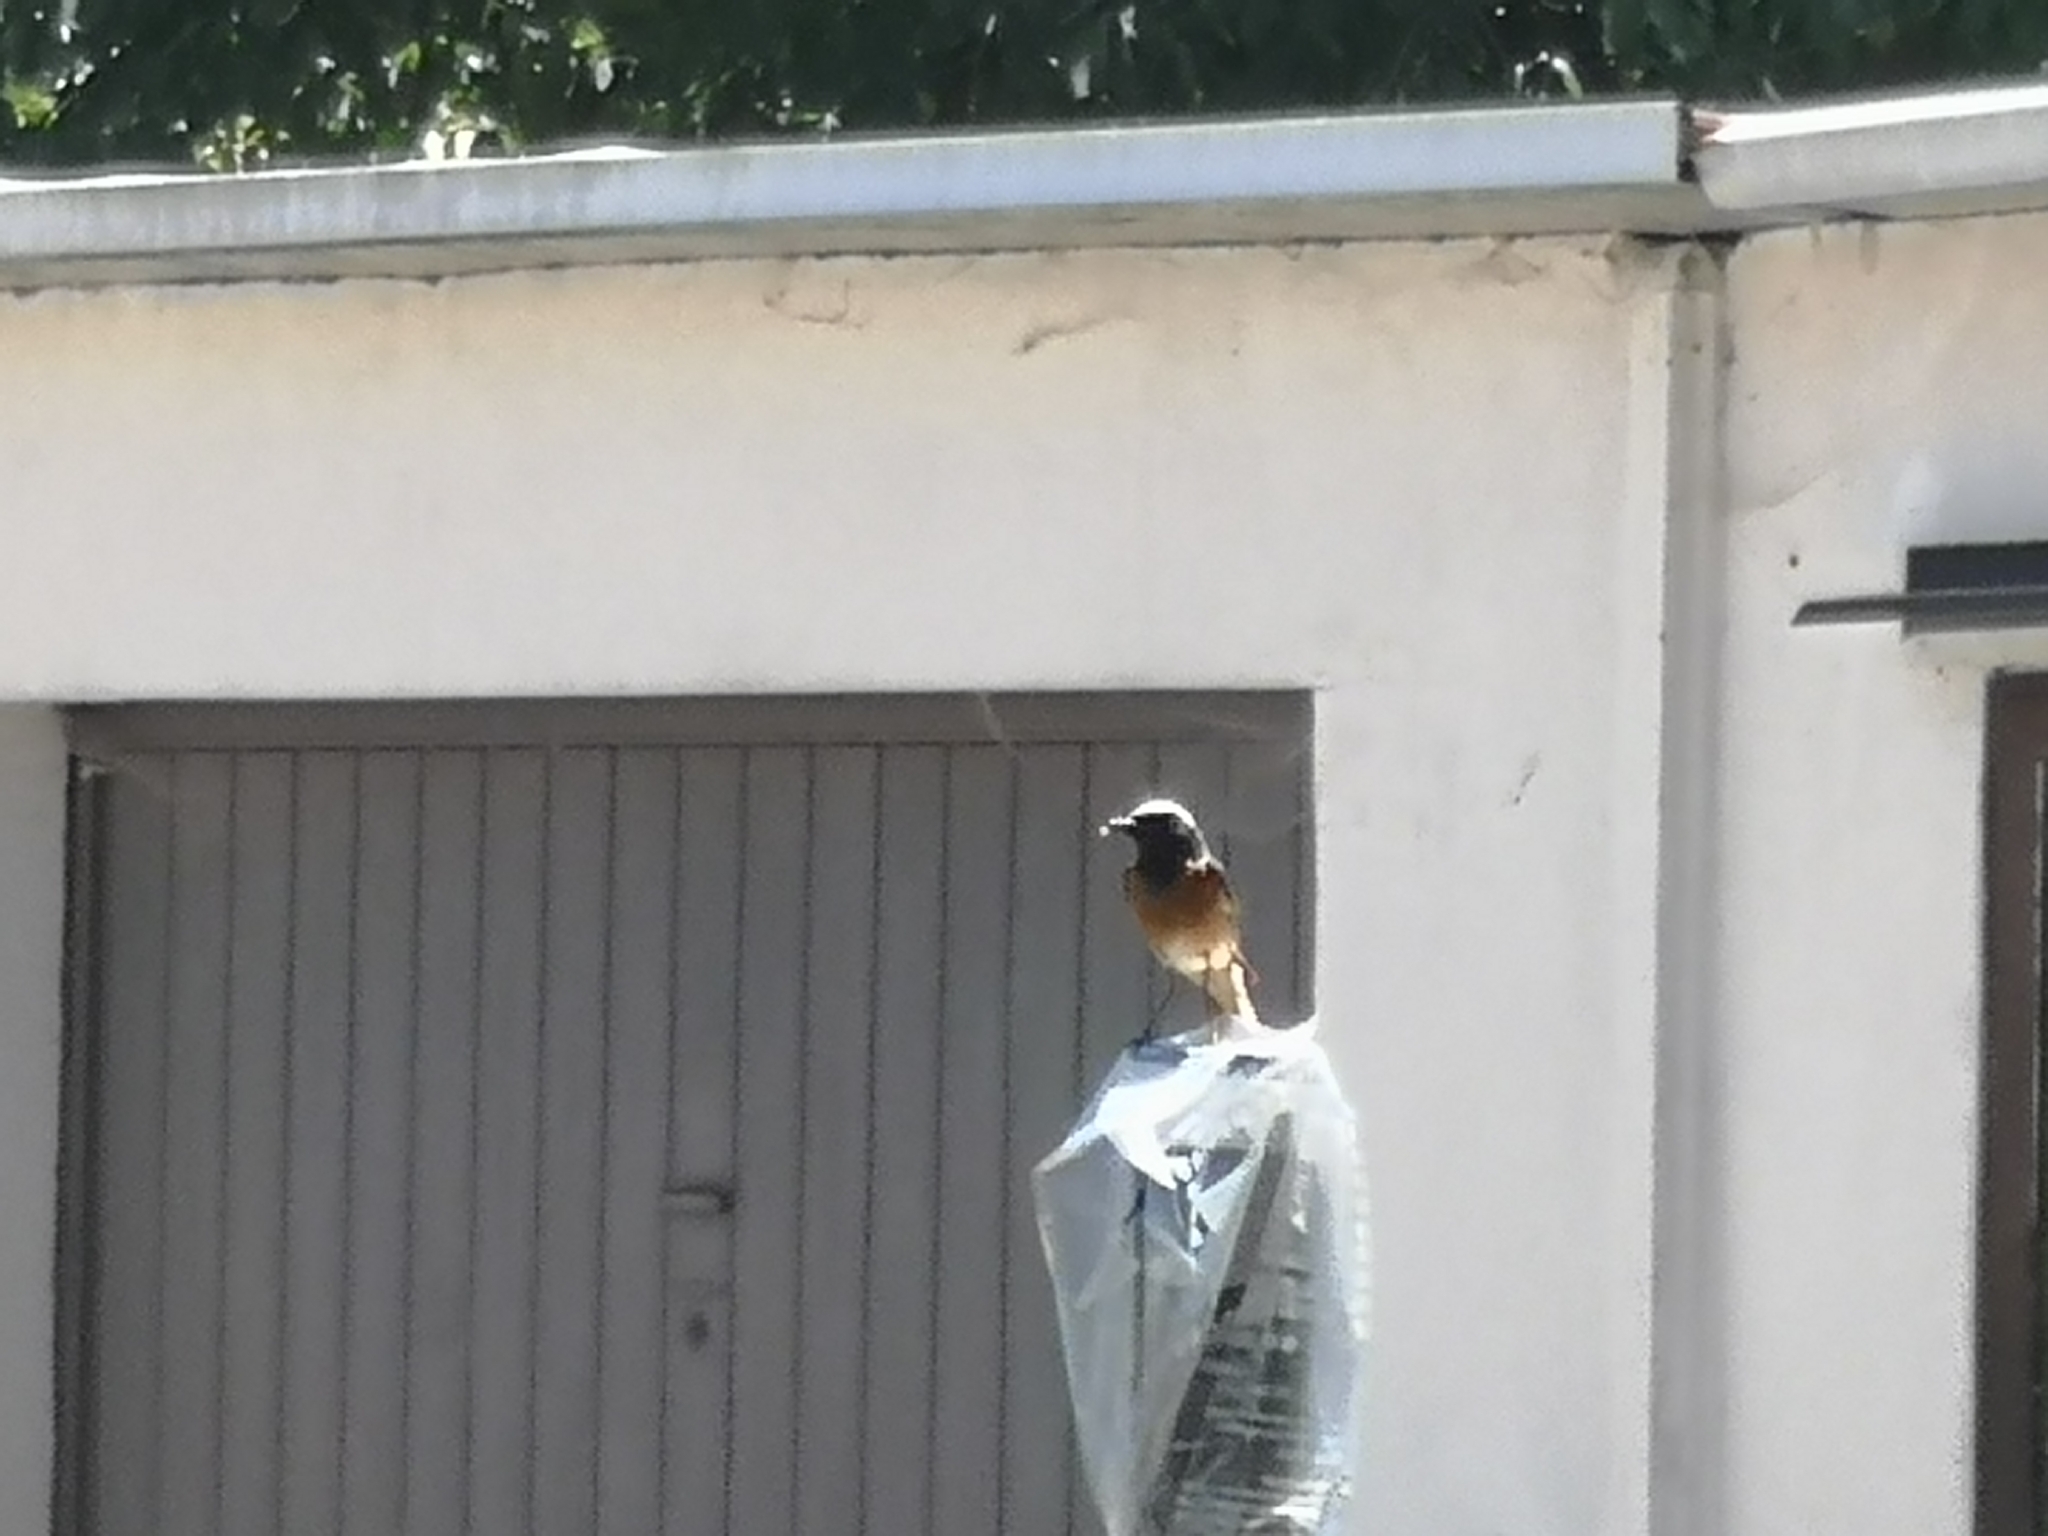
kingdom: Animalia
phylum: Chordata
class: Aves
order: Passeriformes
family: Muscicapidae
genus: Phoenicurus
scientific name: Phoenicurus phoenicurus
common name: Common redstart
